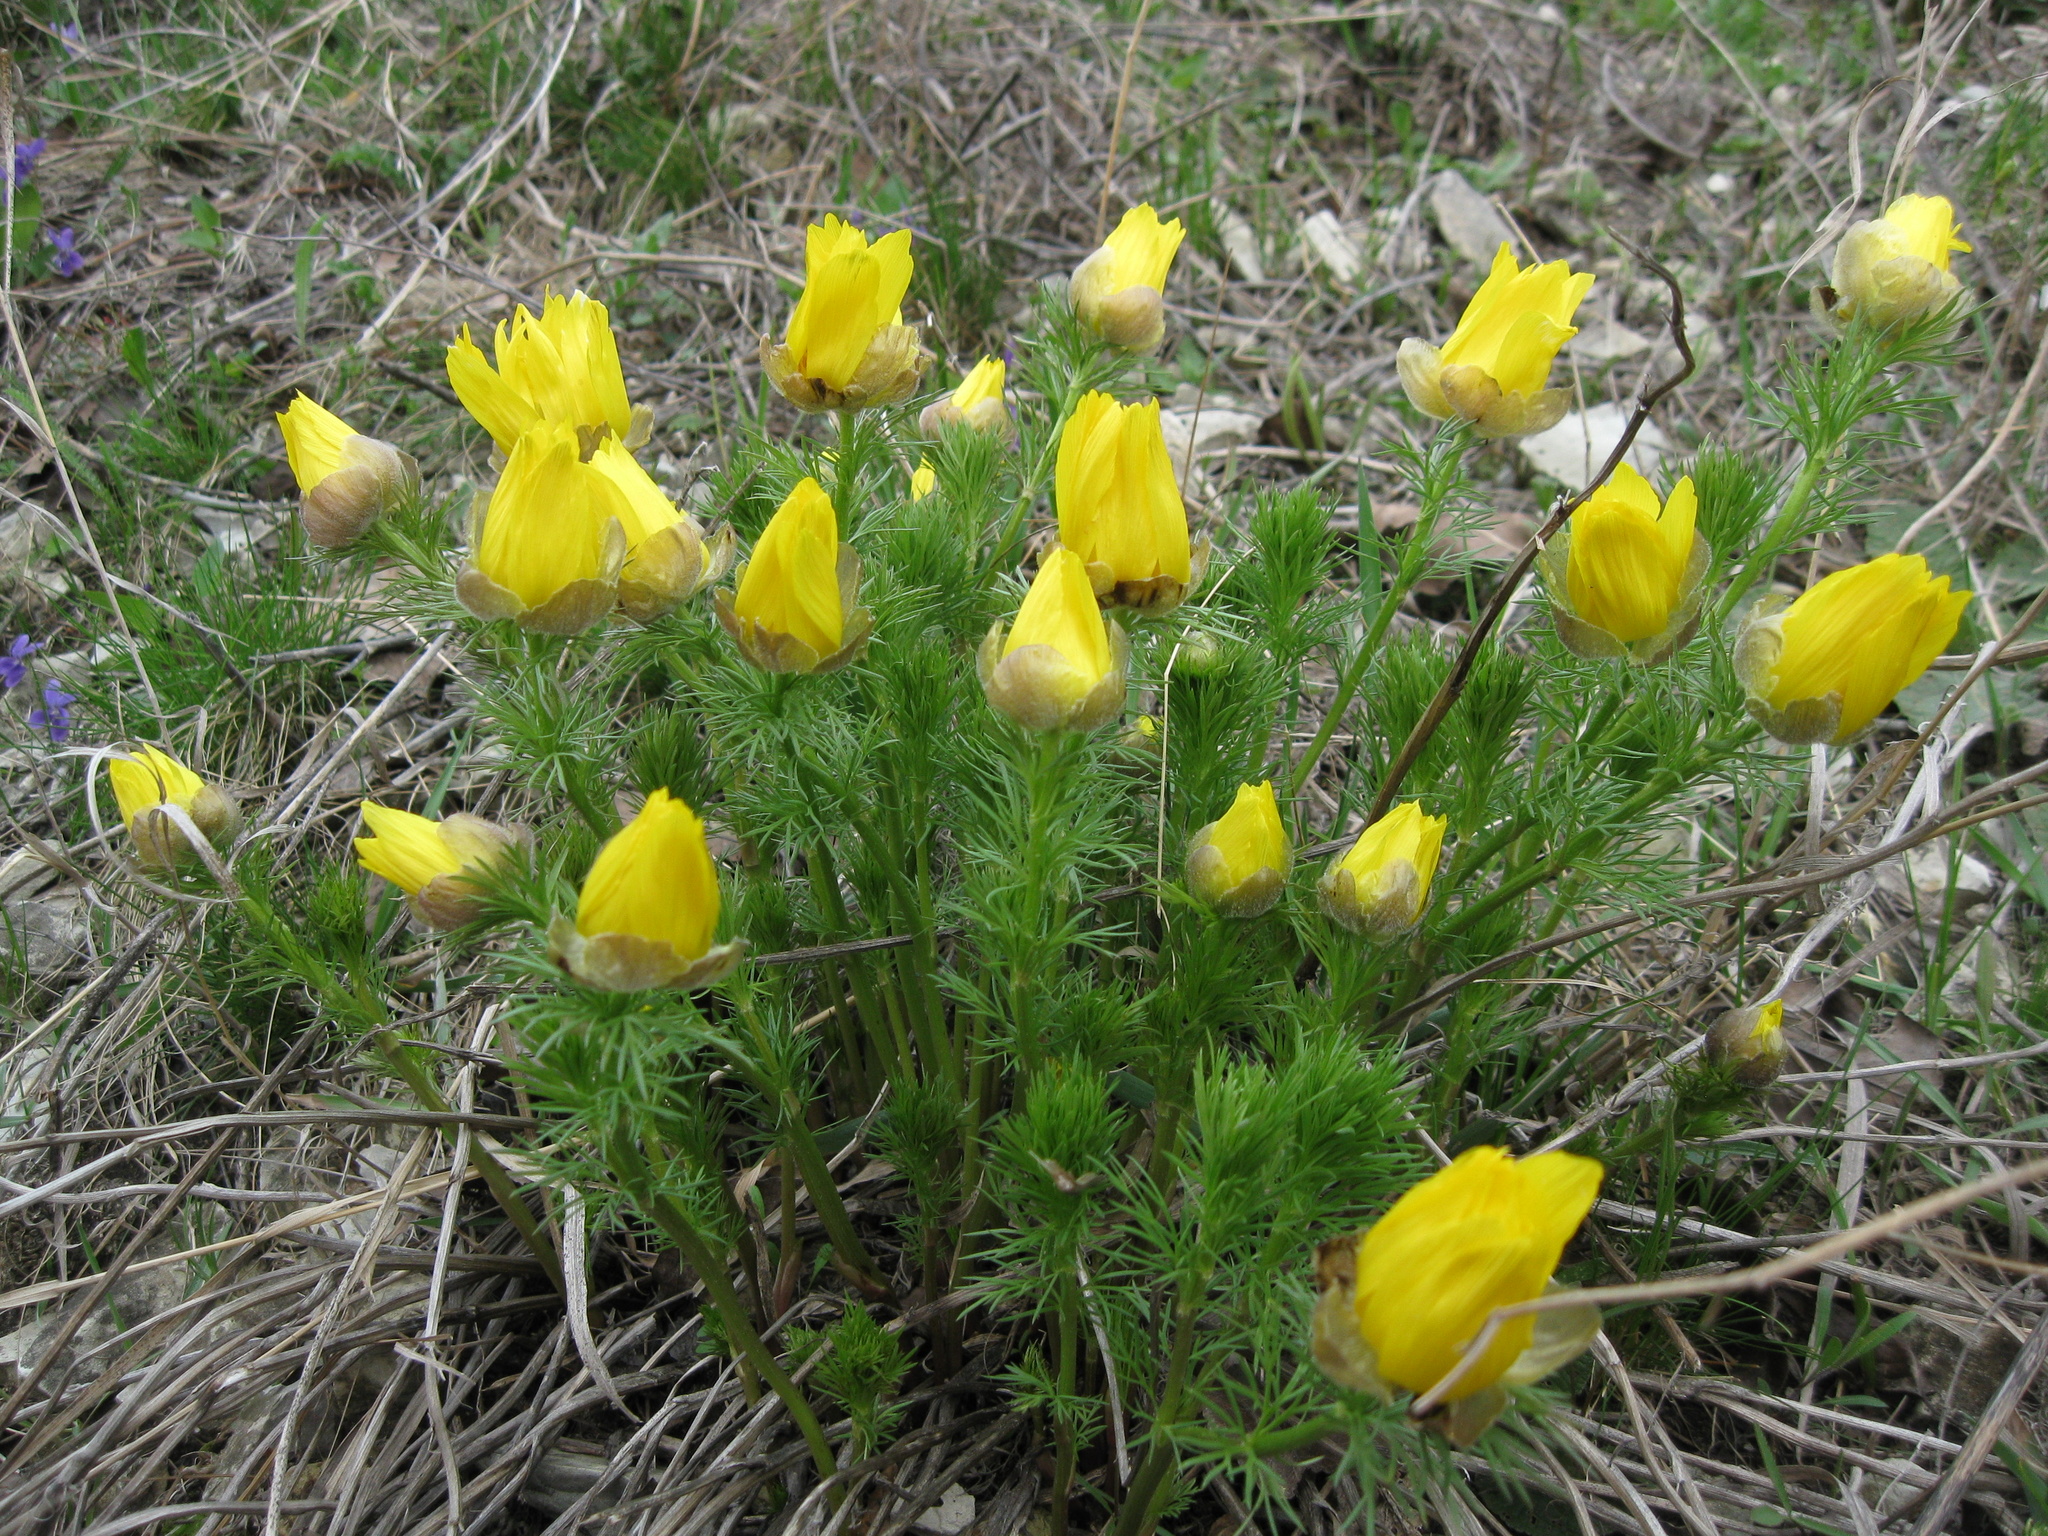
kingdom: Plantae
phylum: Tracheophyta
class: Magnoliopsida
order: Ranunculales
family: Ranunculaceae
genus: Adonis
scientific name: Adonis vernalis
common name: Yellow pheasants-eye
